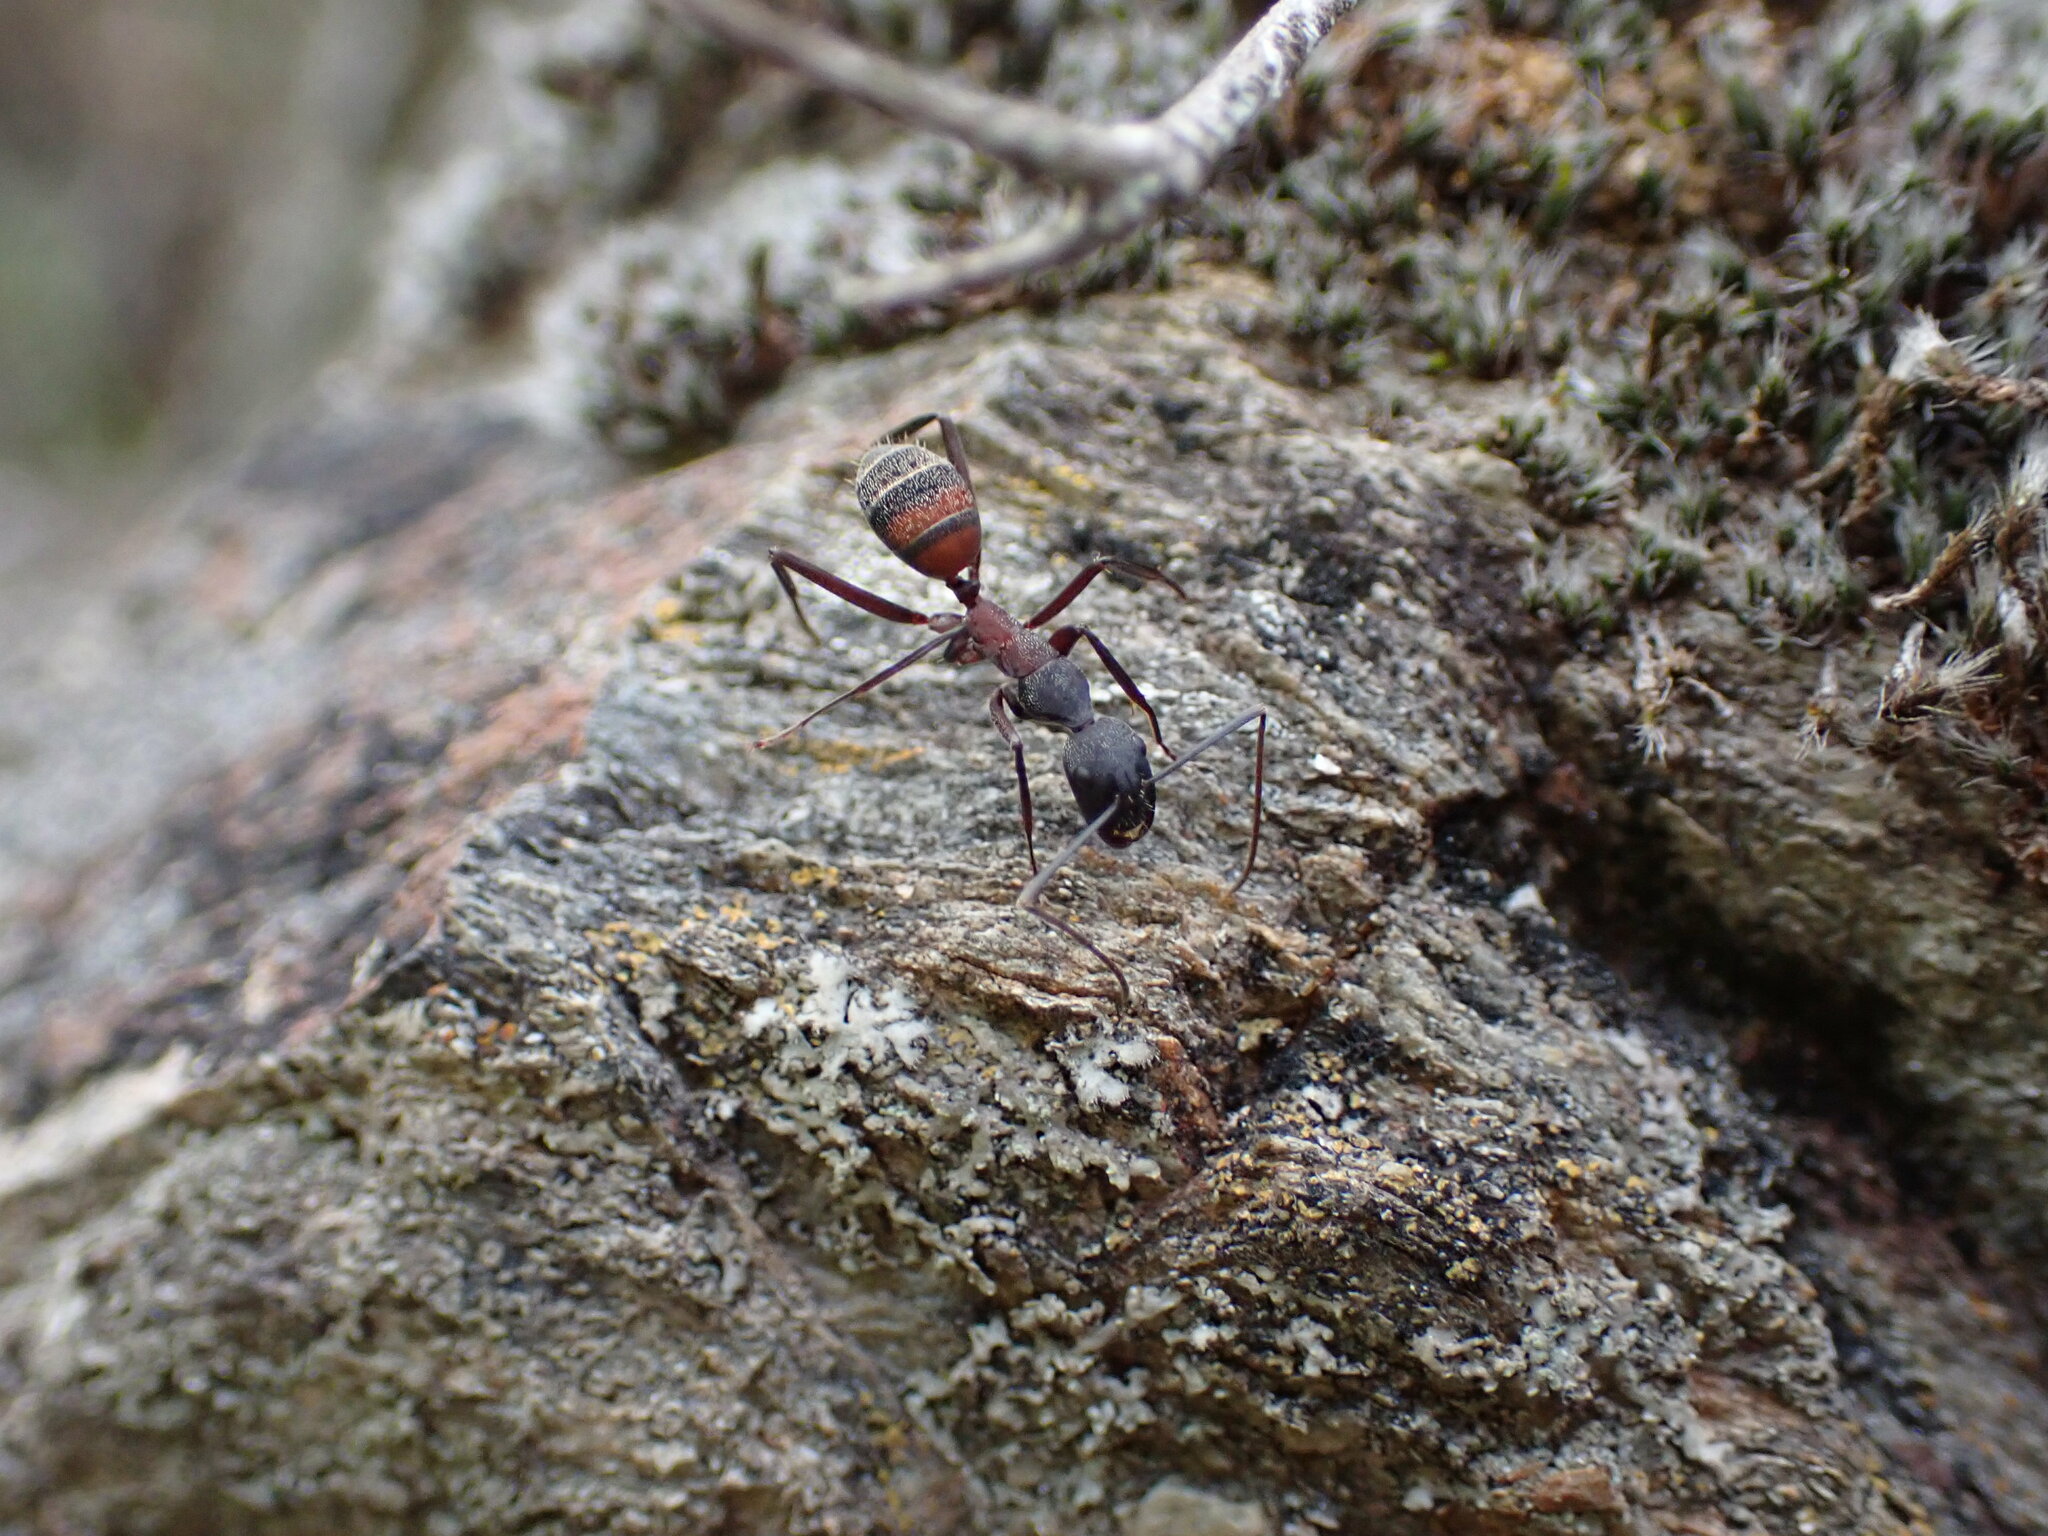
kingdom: Animalia
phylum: Arthropoda
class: Insecta
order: Hymenoptera
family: Formicidae
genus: Camponotus
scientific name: Camponotus cruentatus
